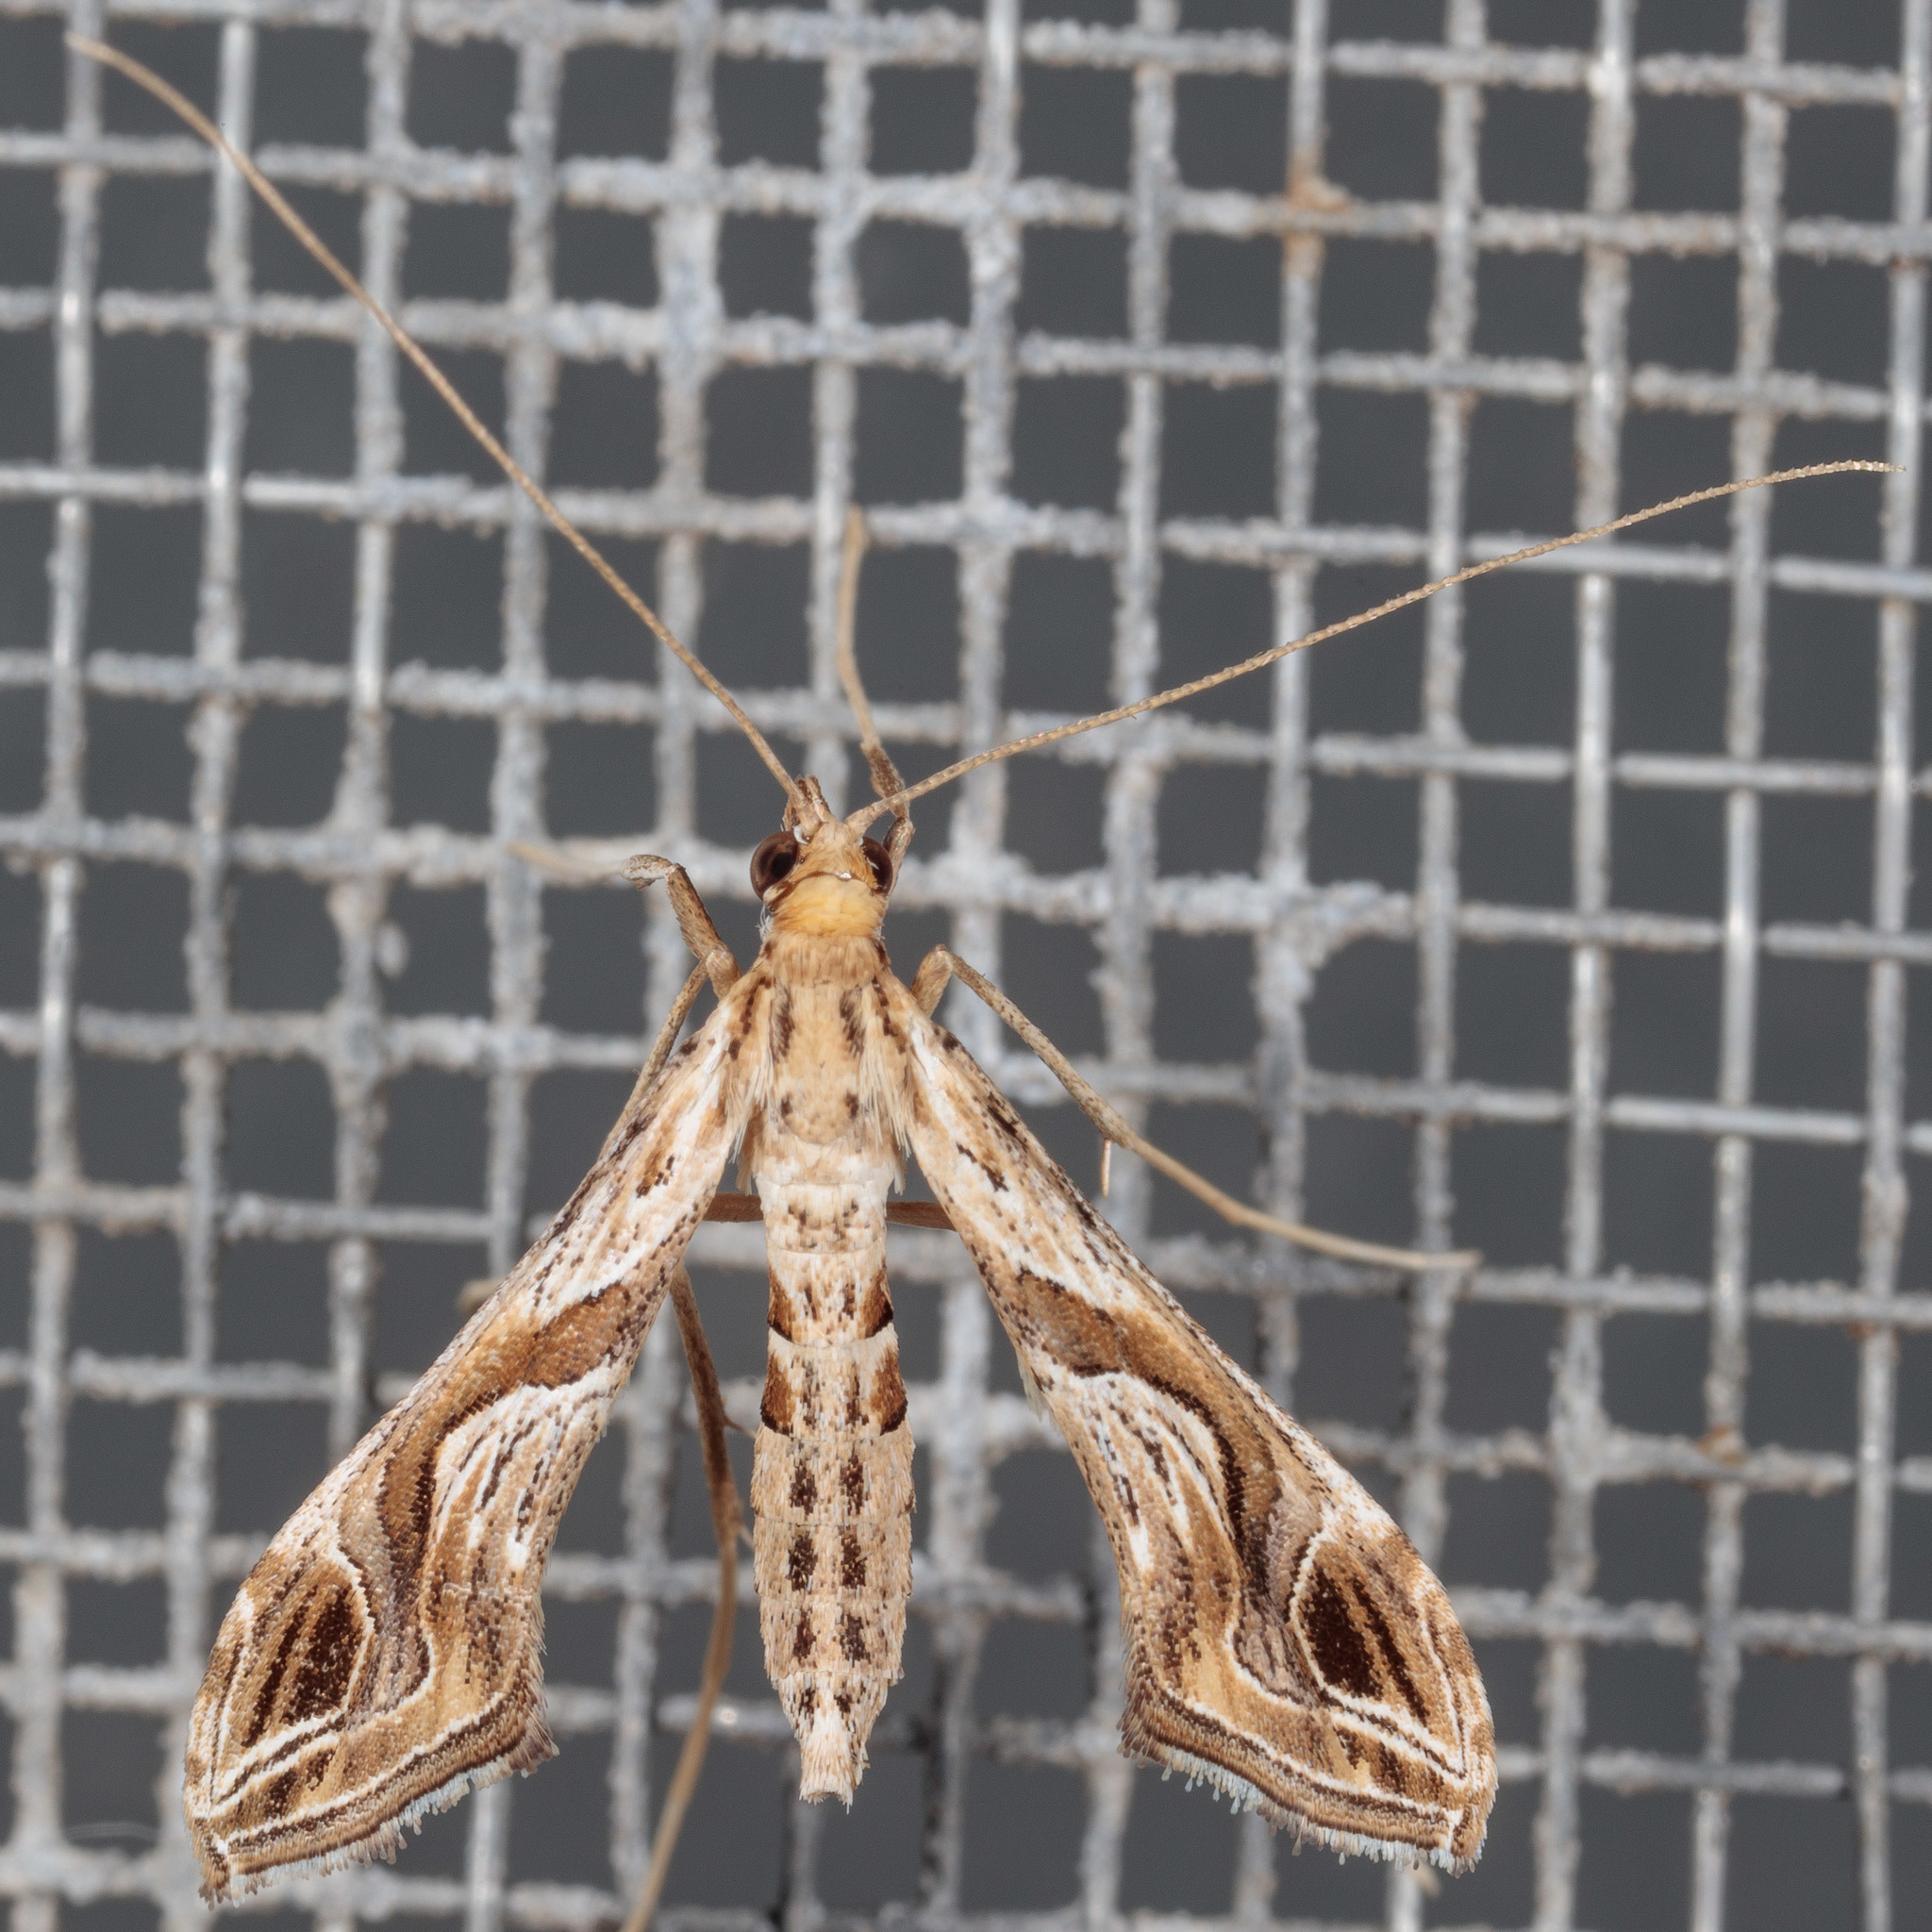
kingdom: Animalia
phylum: Arthropoda
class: Insecta
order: Lepidoptera
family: Crambidae
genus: Lineodes
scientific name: Lineodes integra
